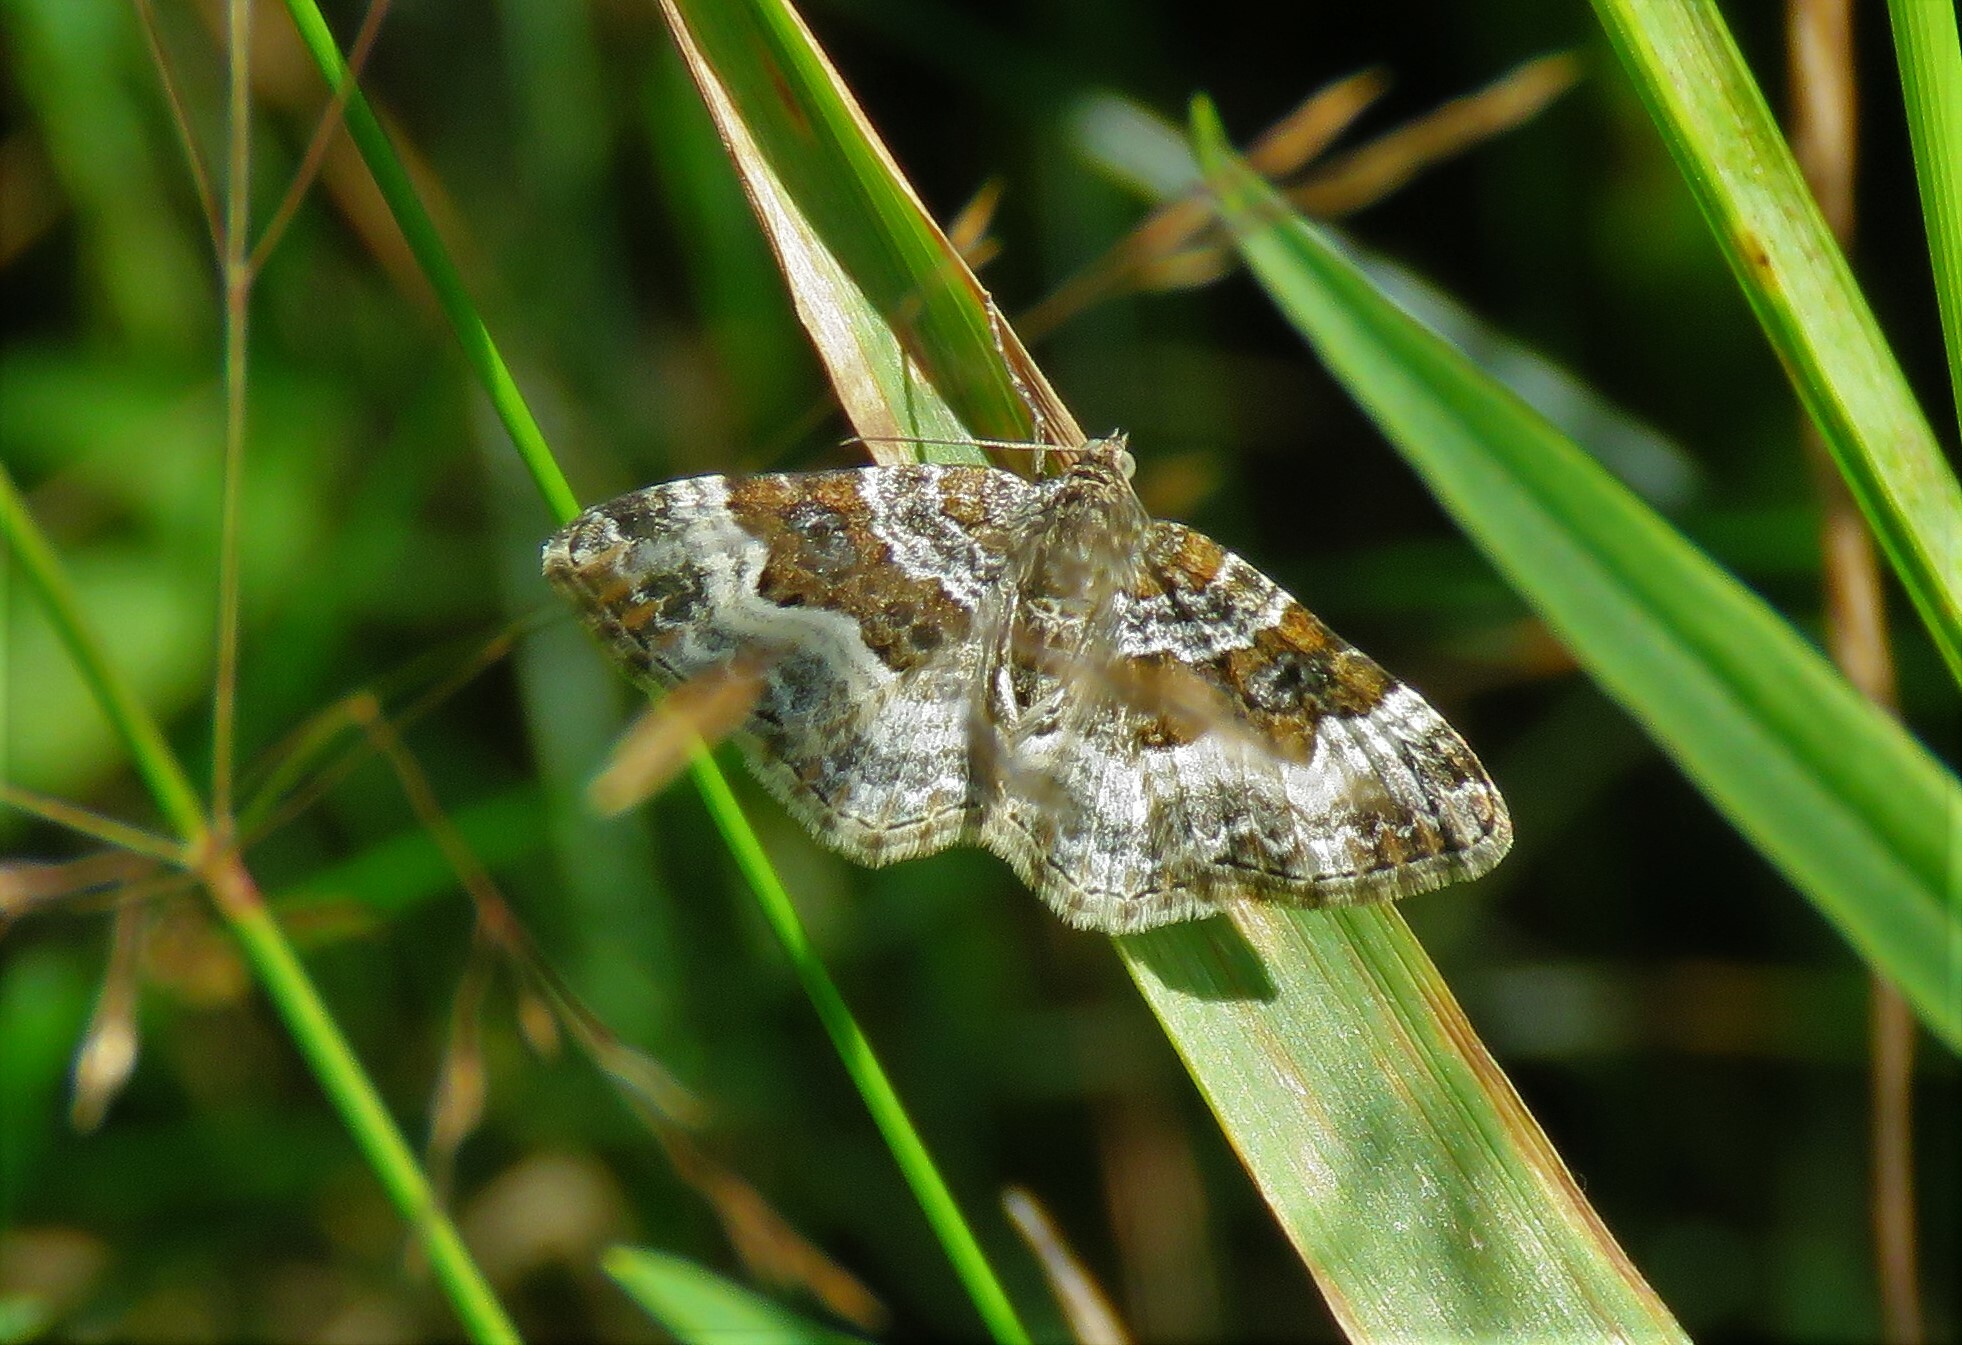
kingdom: Animalia
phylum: Arthropoda
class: Insecta
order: Lepidoptera
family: Geometridae
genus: Epirrhoe
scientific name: Epirrhoe alternata
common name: Common carpet
